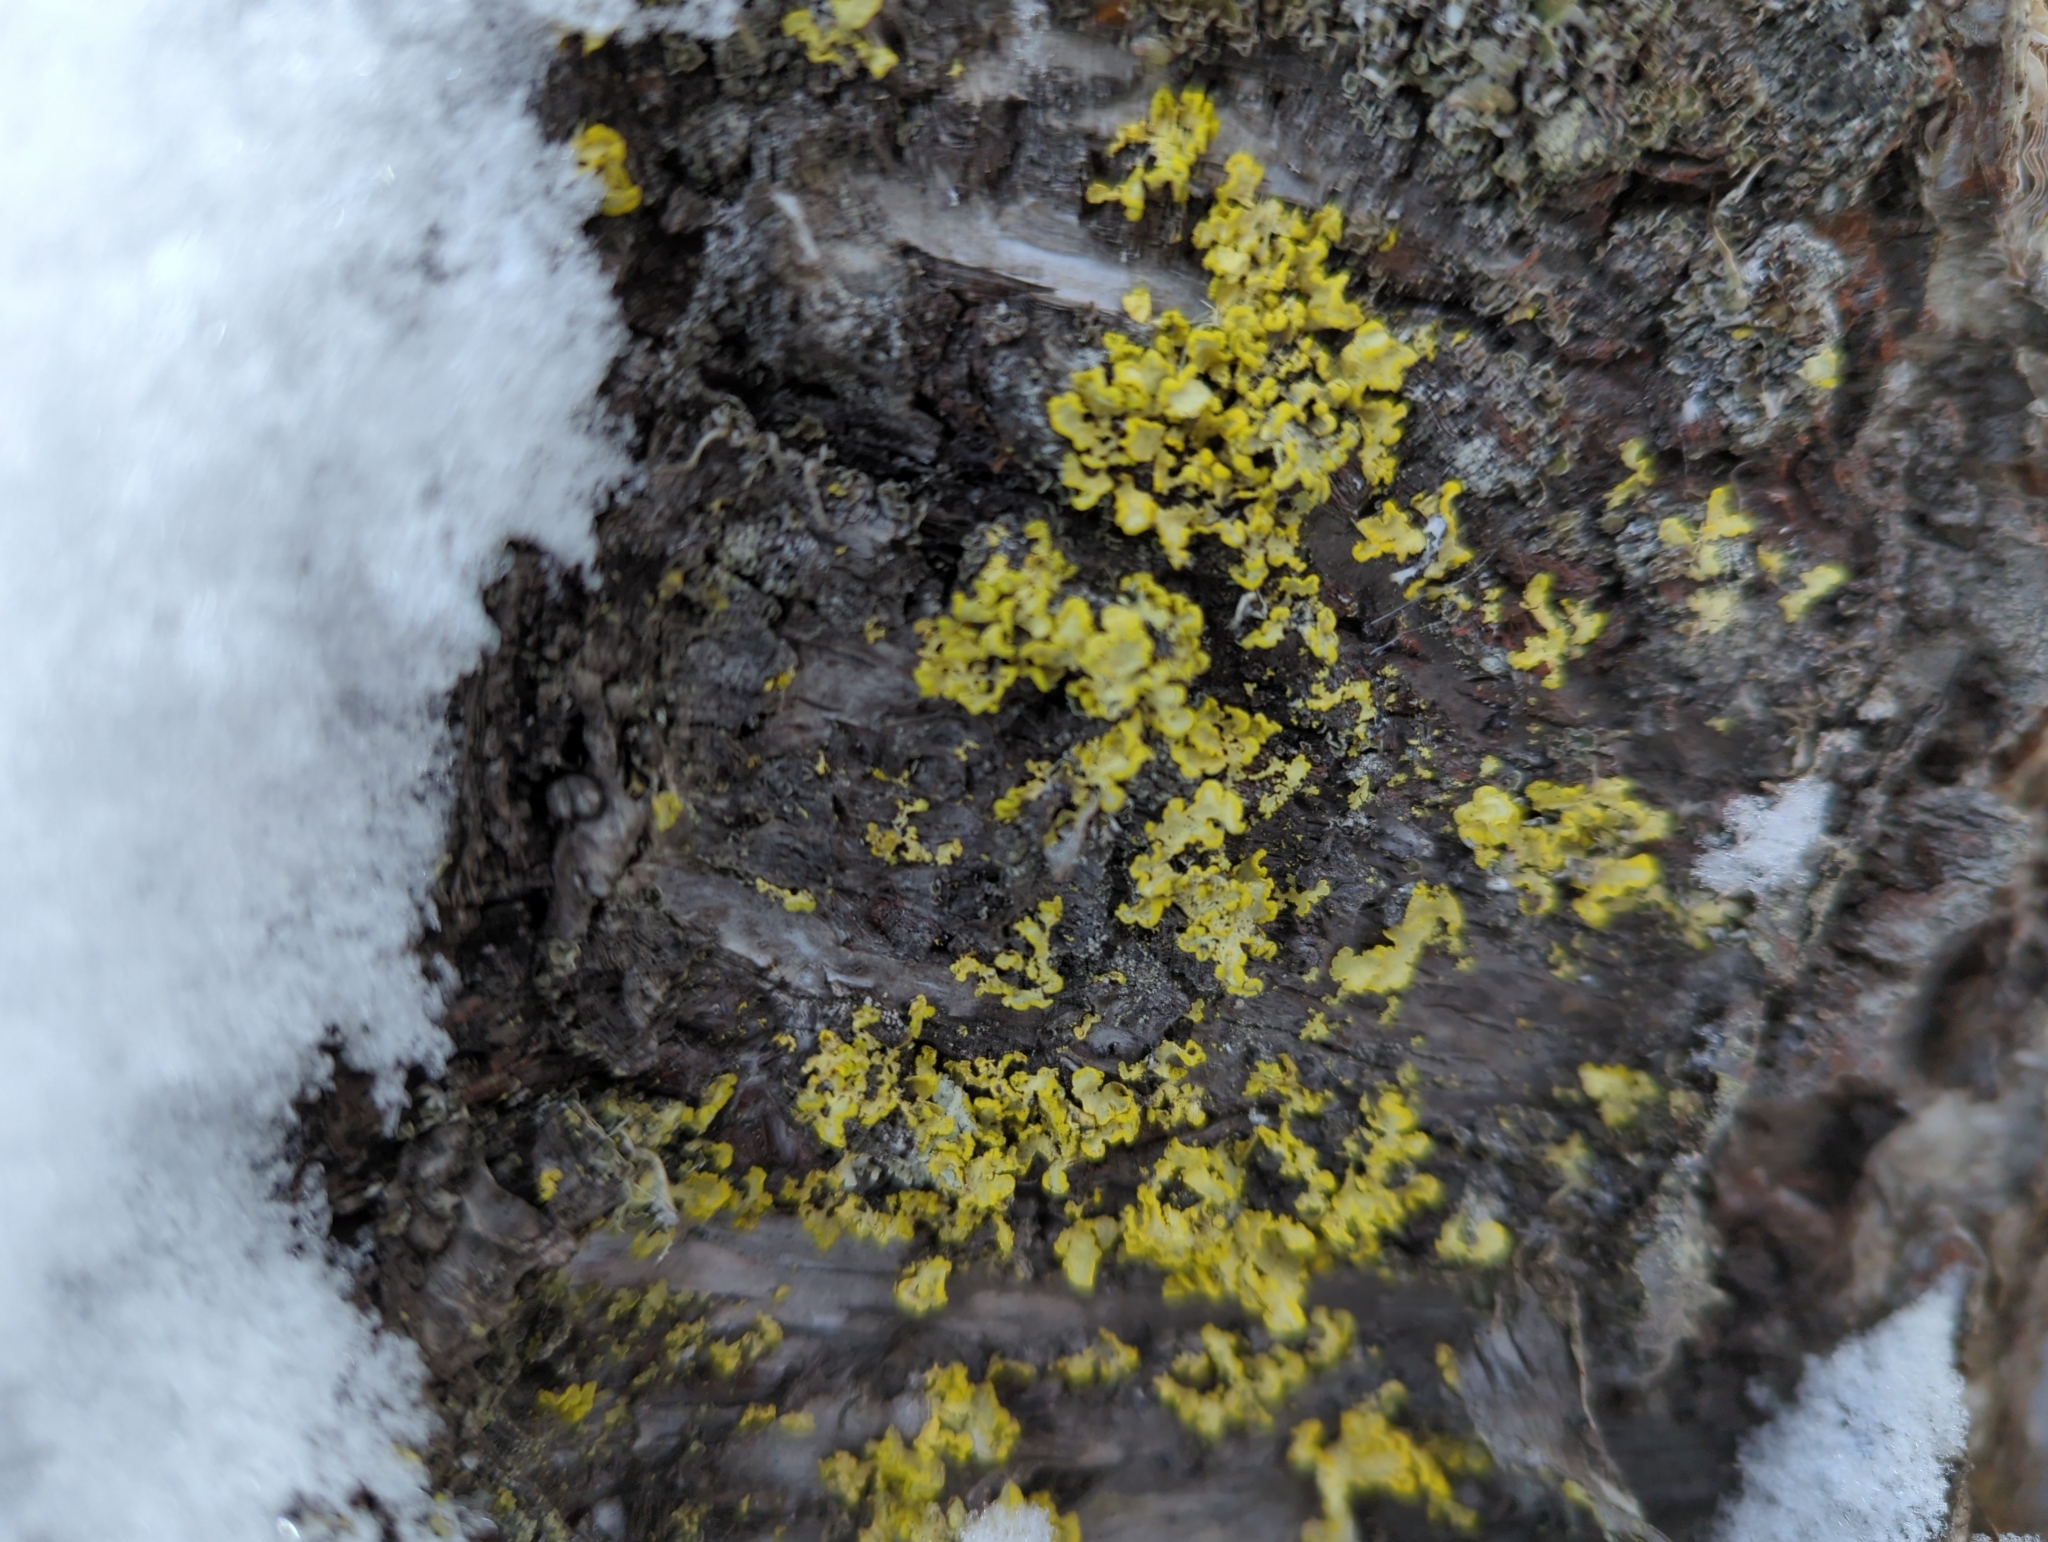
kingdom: Fungi
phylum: Ascomycota
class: Lecanoromycetes
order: Lecanorales
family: Parmeliaceae
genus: Vulpicida
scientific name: Vulpicida pinastri
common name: Powdered sunshine lichen
